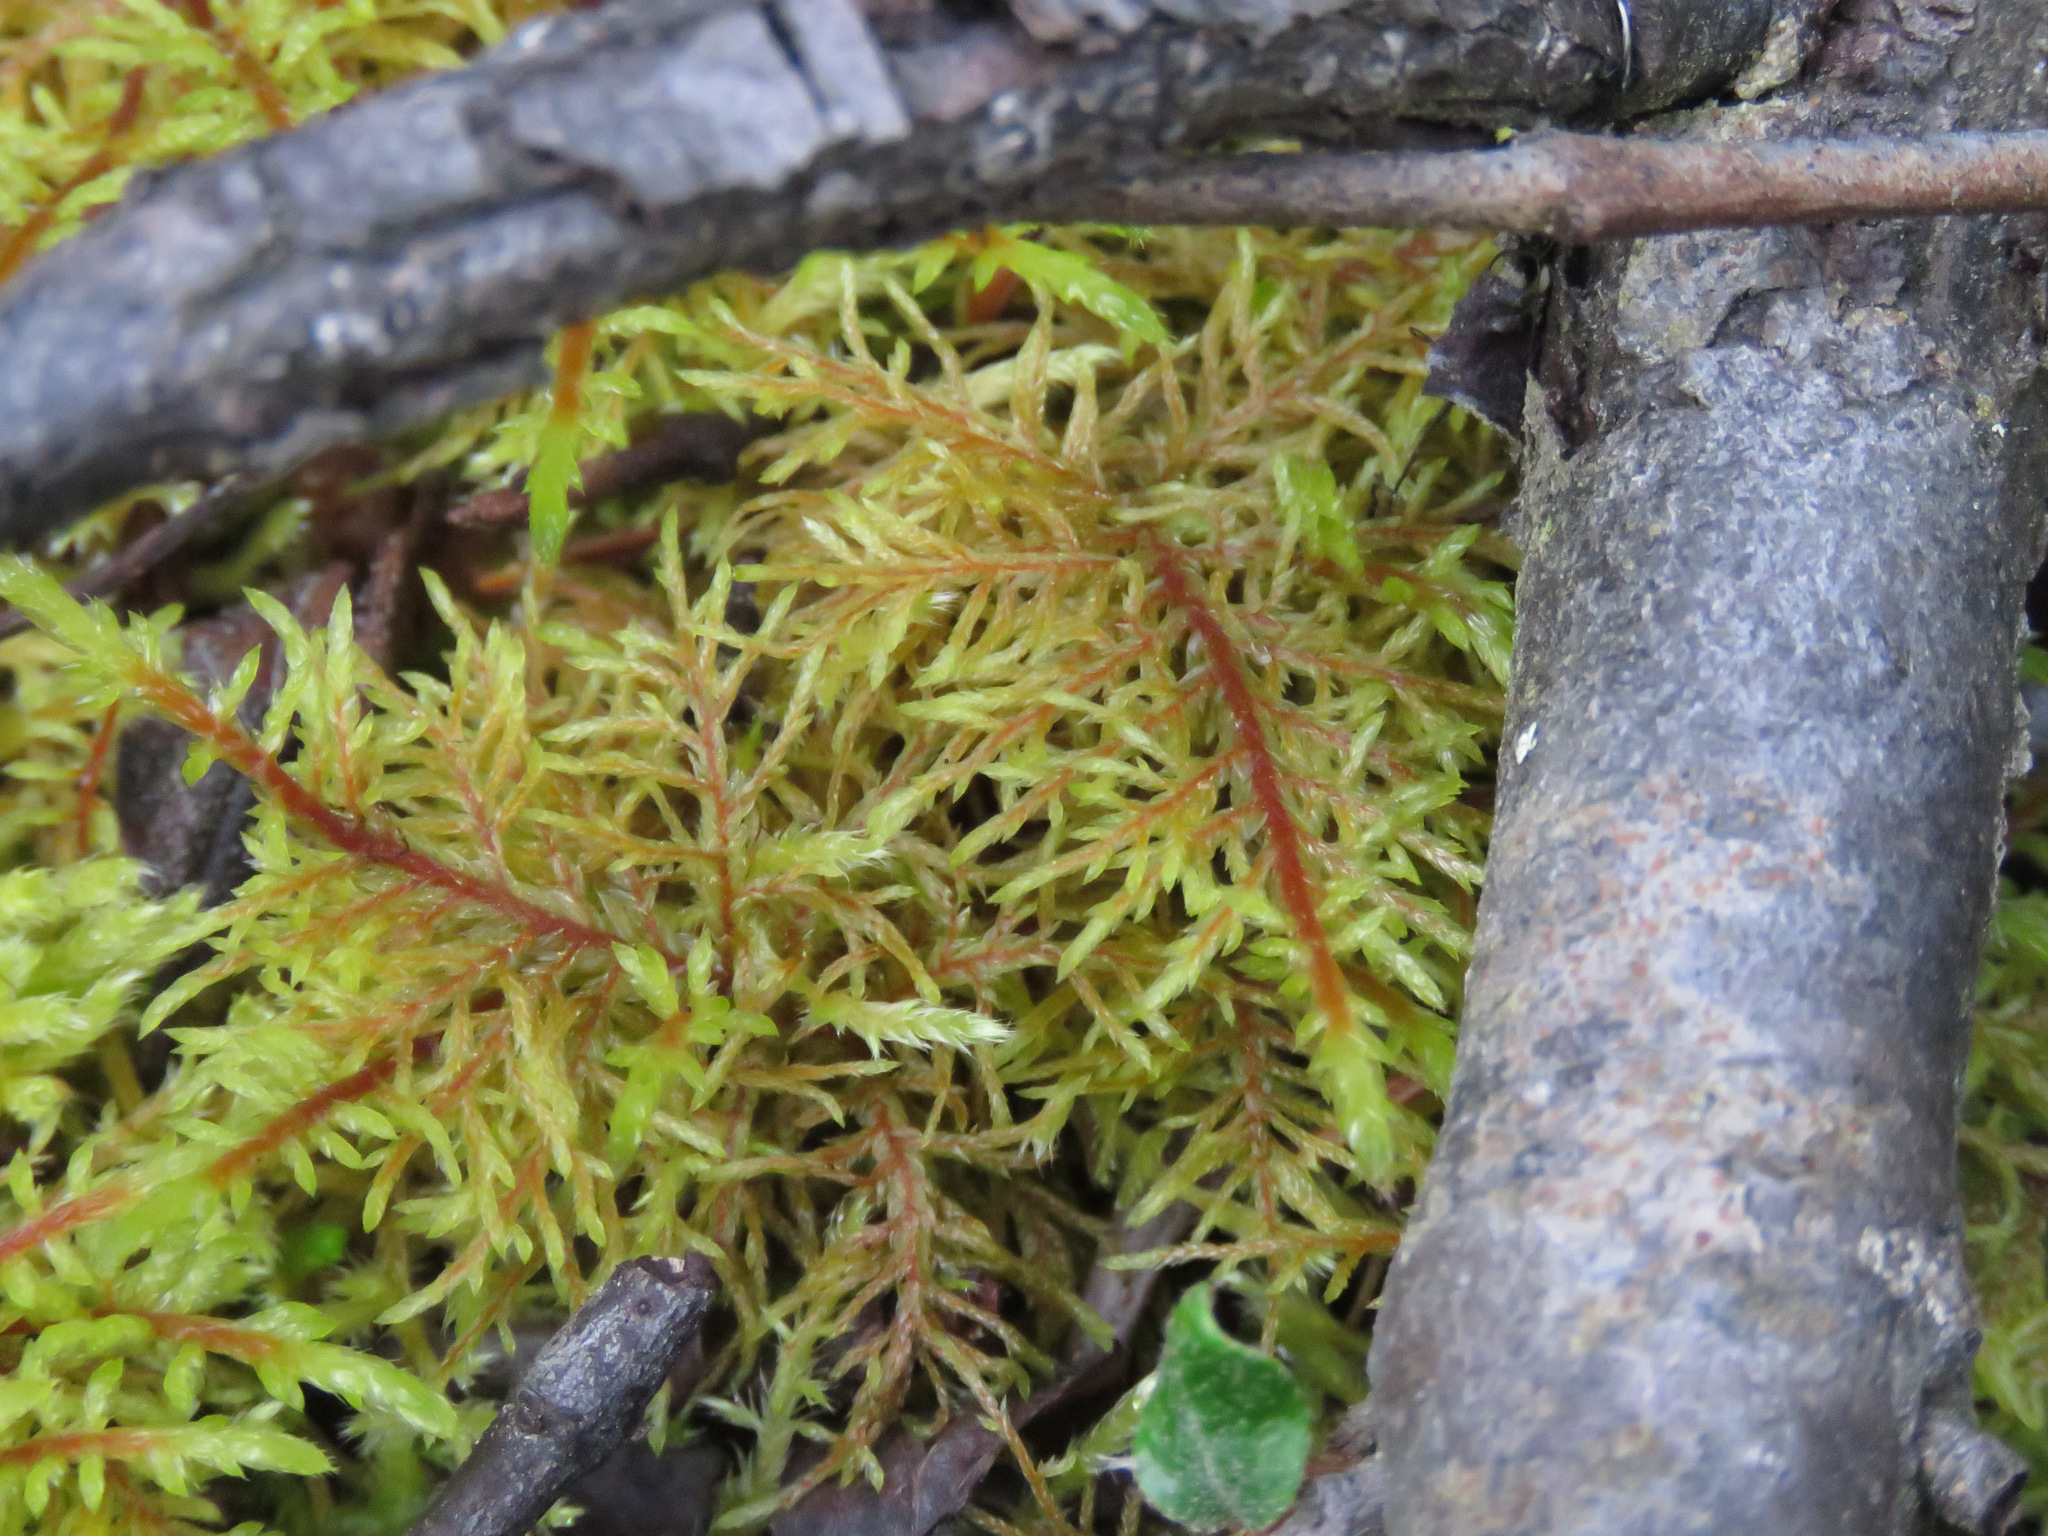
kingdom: Plantae
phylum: Bryophyta
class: Bryopsida
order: Hypnales
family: Hylocomiaceae
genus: Hylocomium
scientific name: Hylocomium splendens
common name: Stairstep moss
